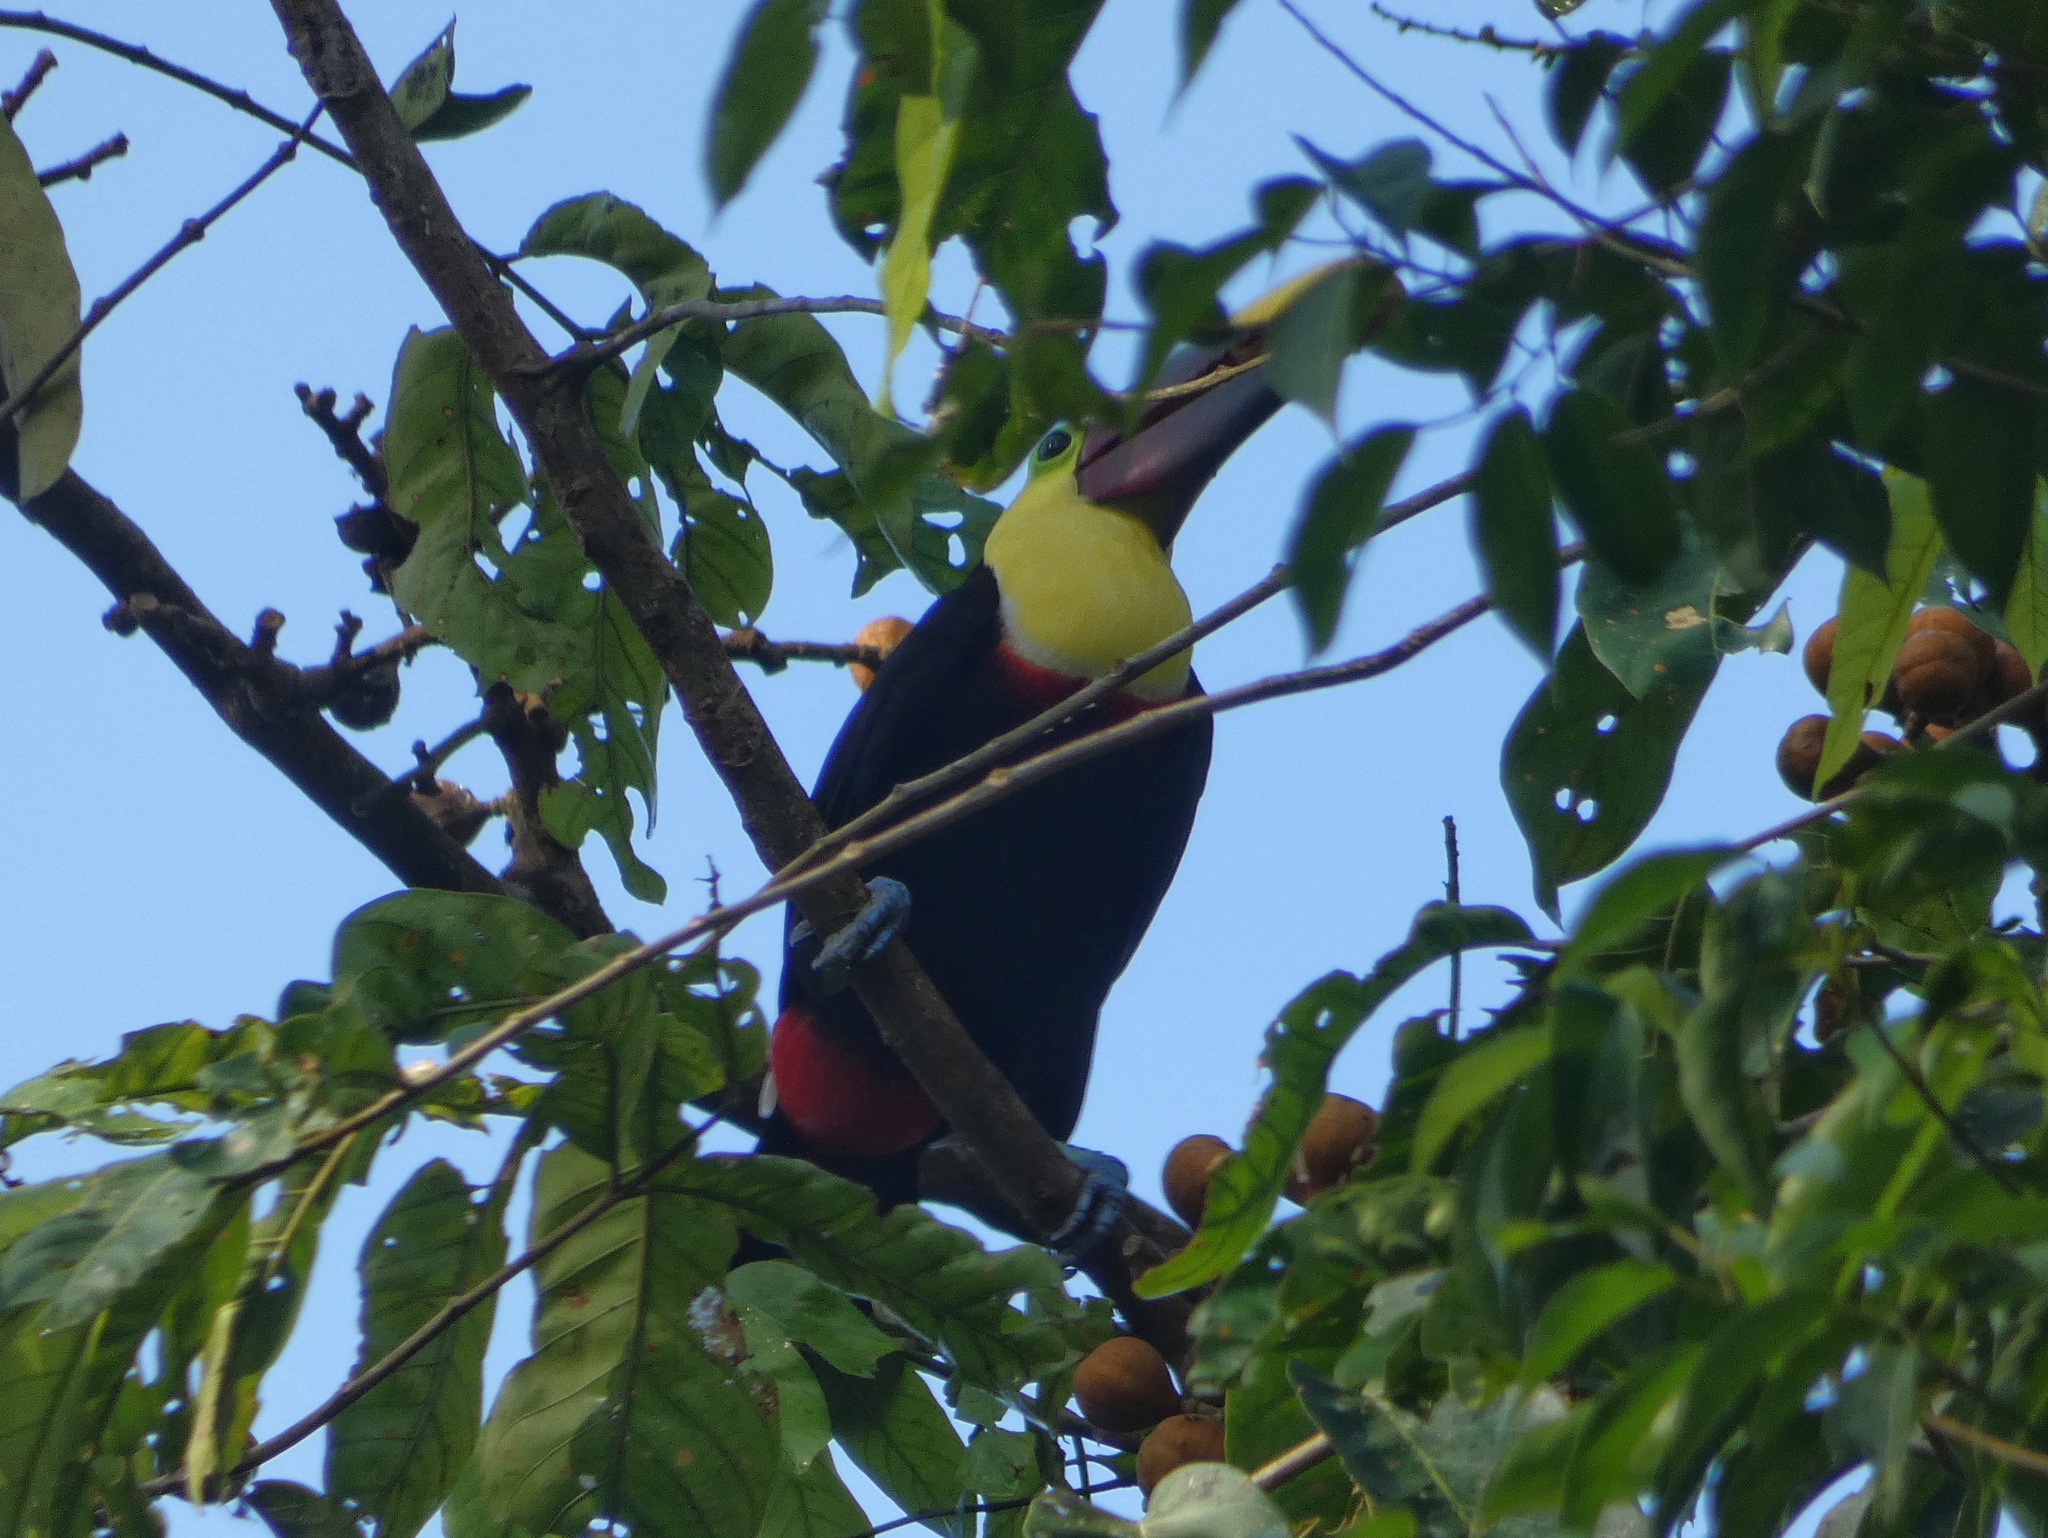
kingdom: Animalia
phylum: Chordata
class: Aves
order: Piciformes
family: Ramphastidae
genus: Ramphastos
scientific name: Ramphastos ambiguus
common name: Yellow-throated toucan
